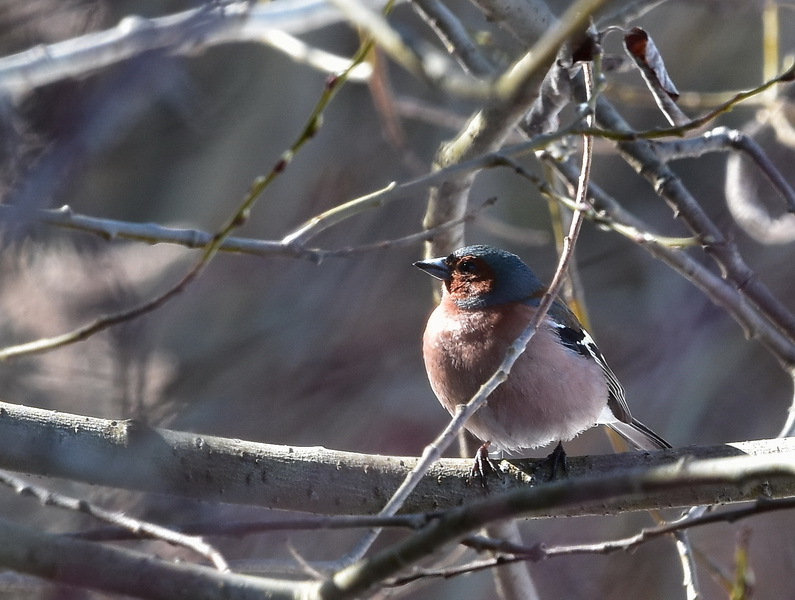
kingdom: Animalia
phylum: Chordata
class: Aves
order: Passeriformes
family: Fringillidae
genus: Fringilla
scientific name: Fringilla coelebs
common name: Common chaffinch
